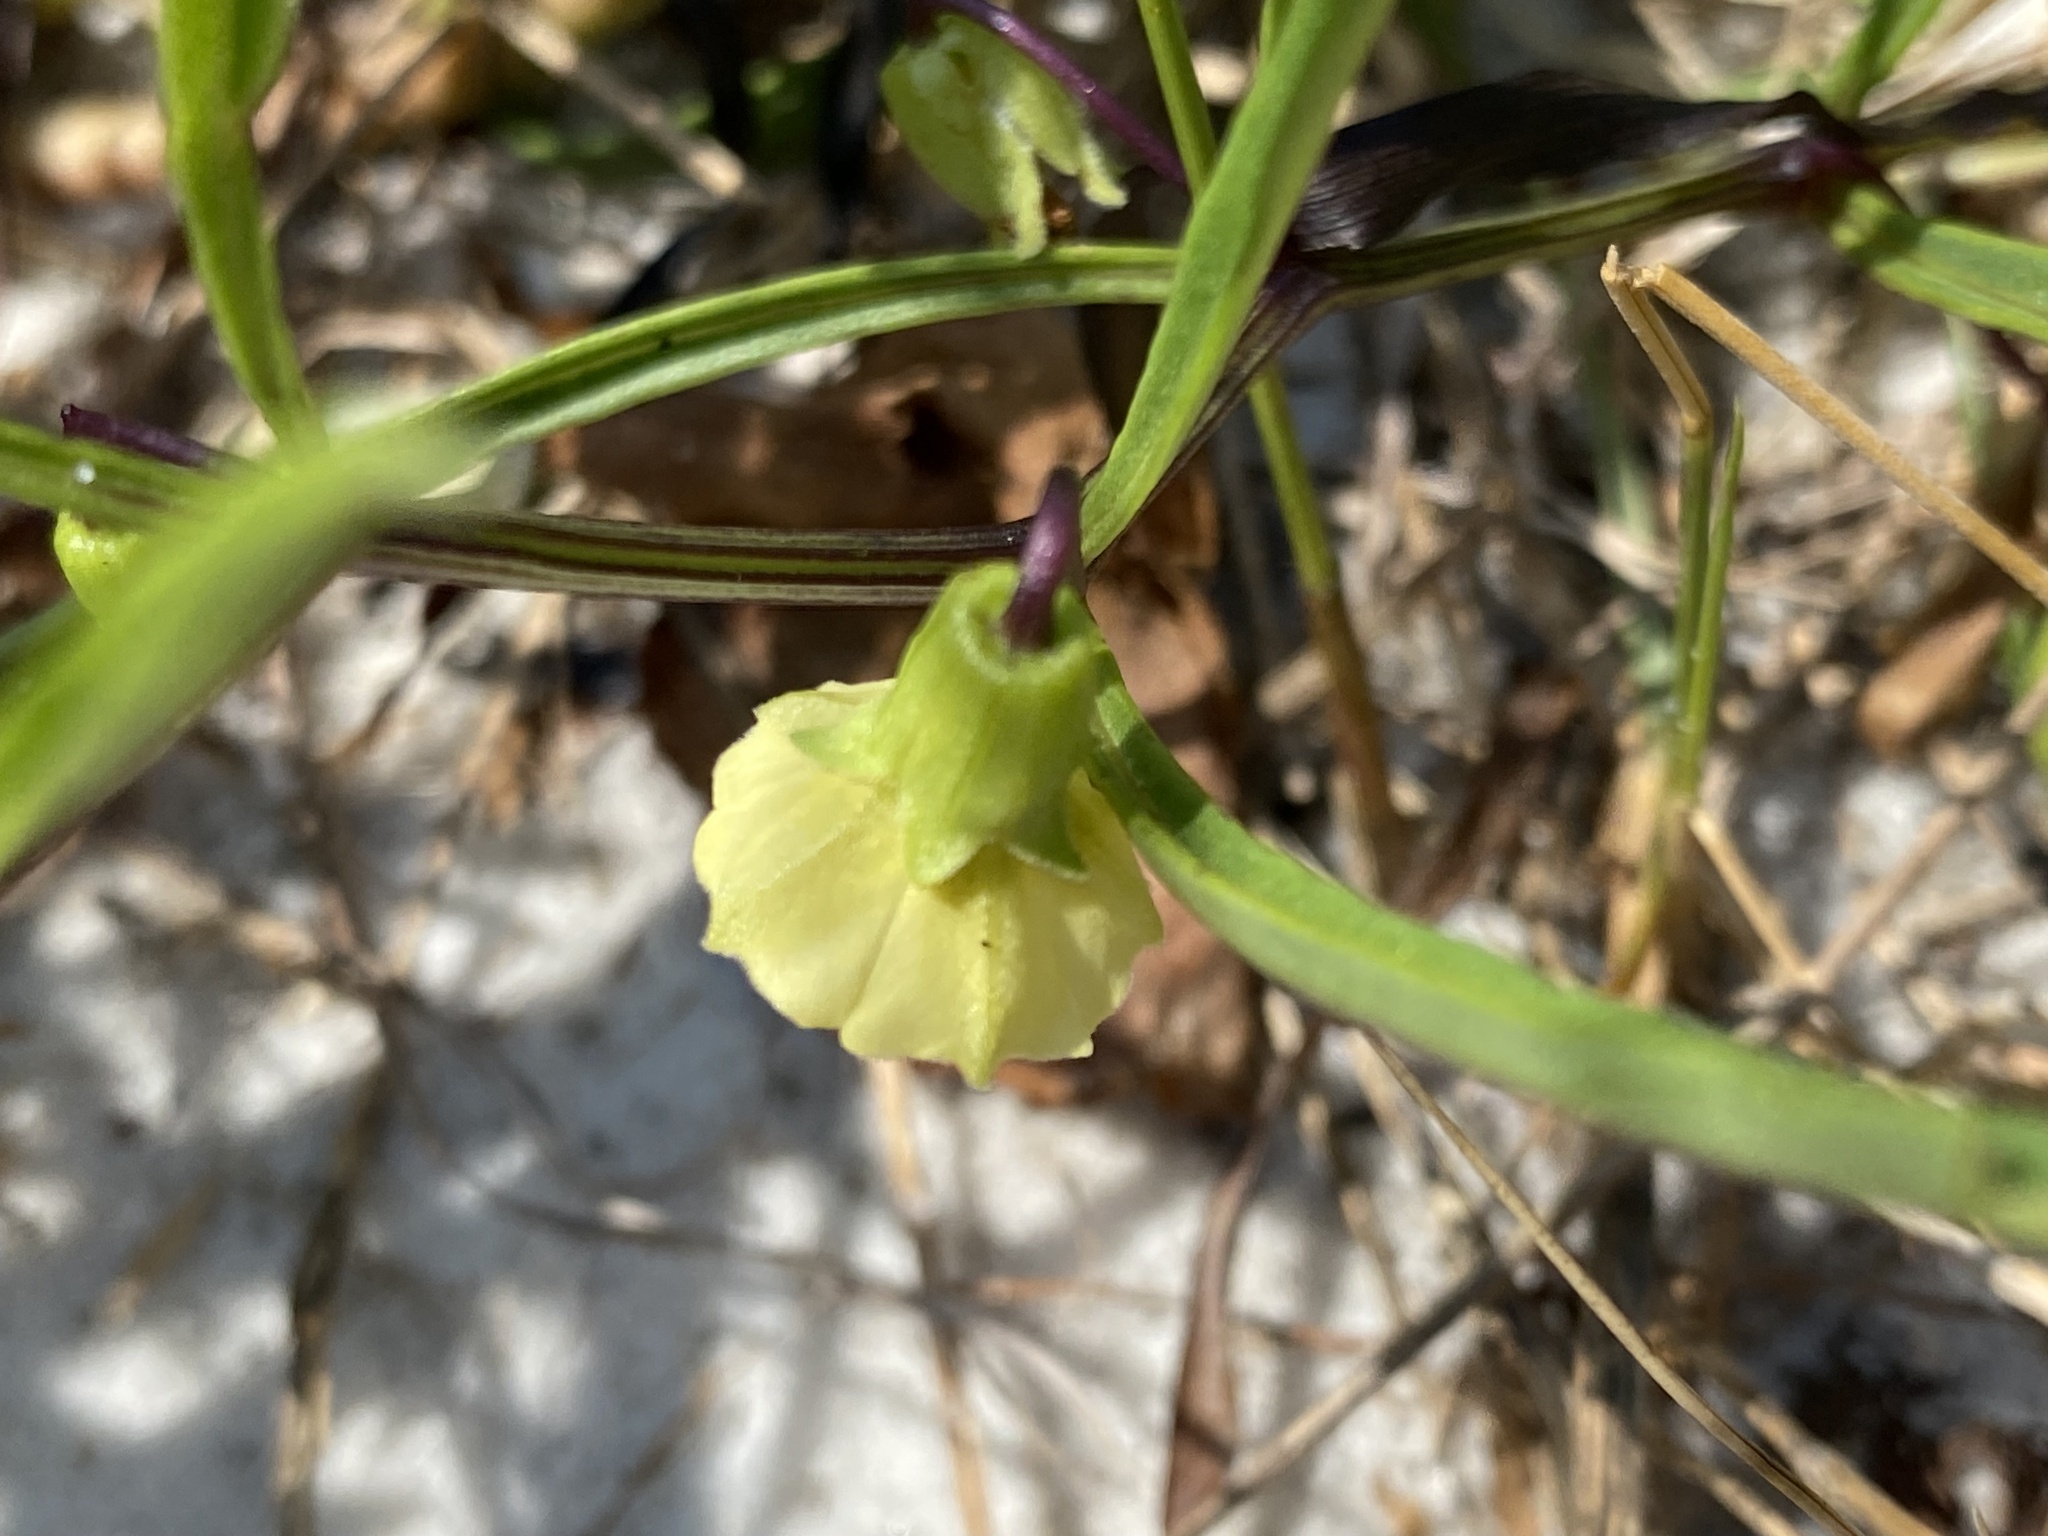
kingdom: Plantae
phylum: Tracheophyta
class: Magnoliopsida
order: Solanales
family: Solanaceae
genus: Physalis
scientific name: Physalis angustifolia
